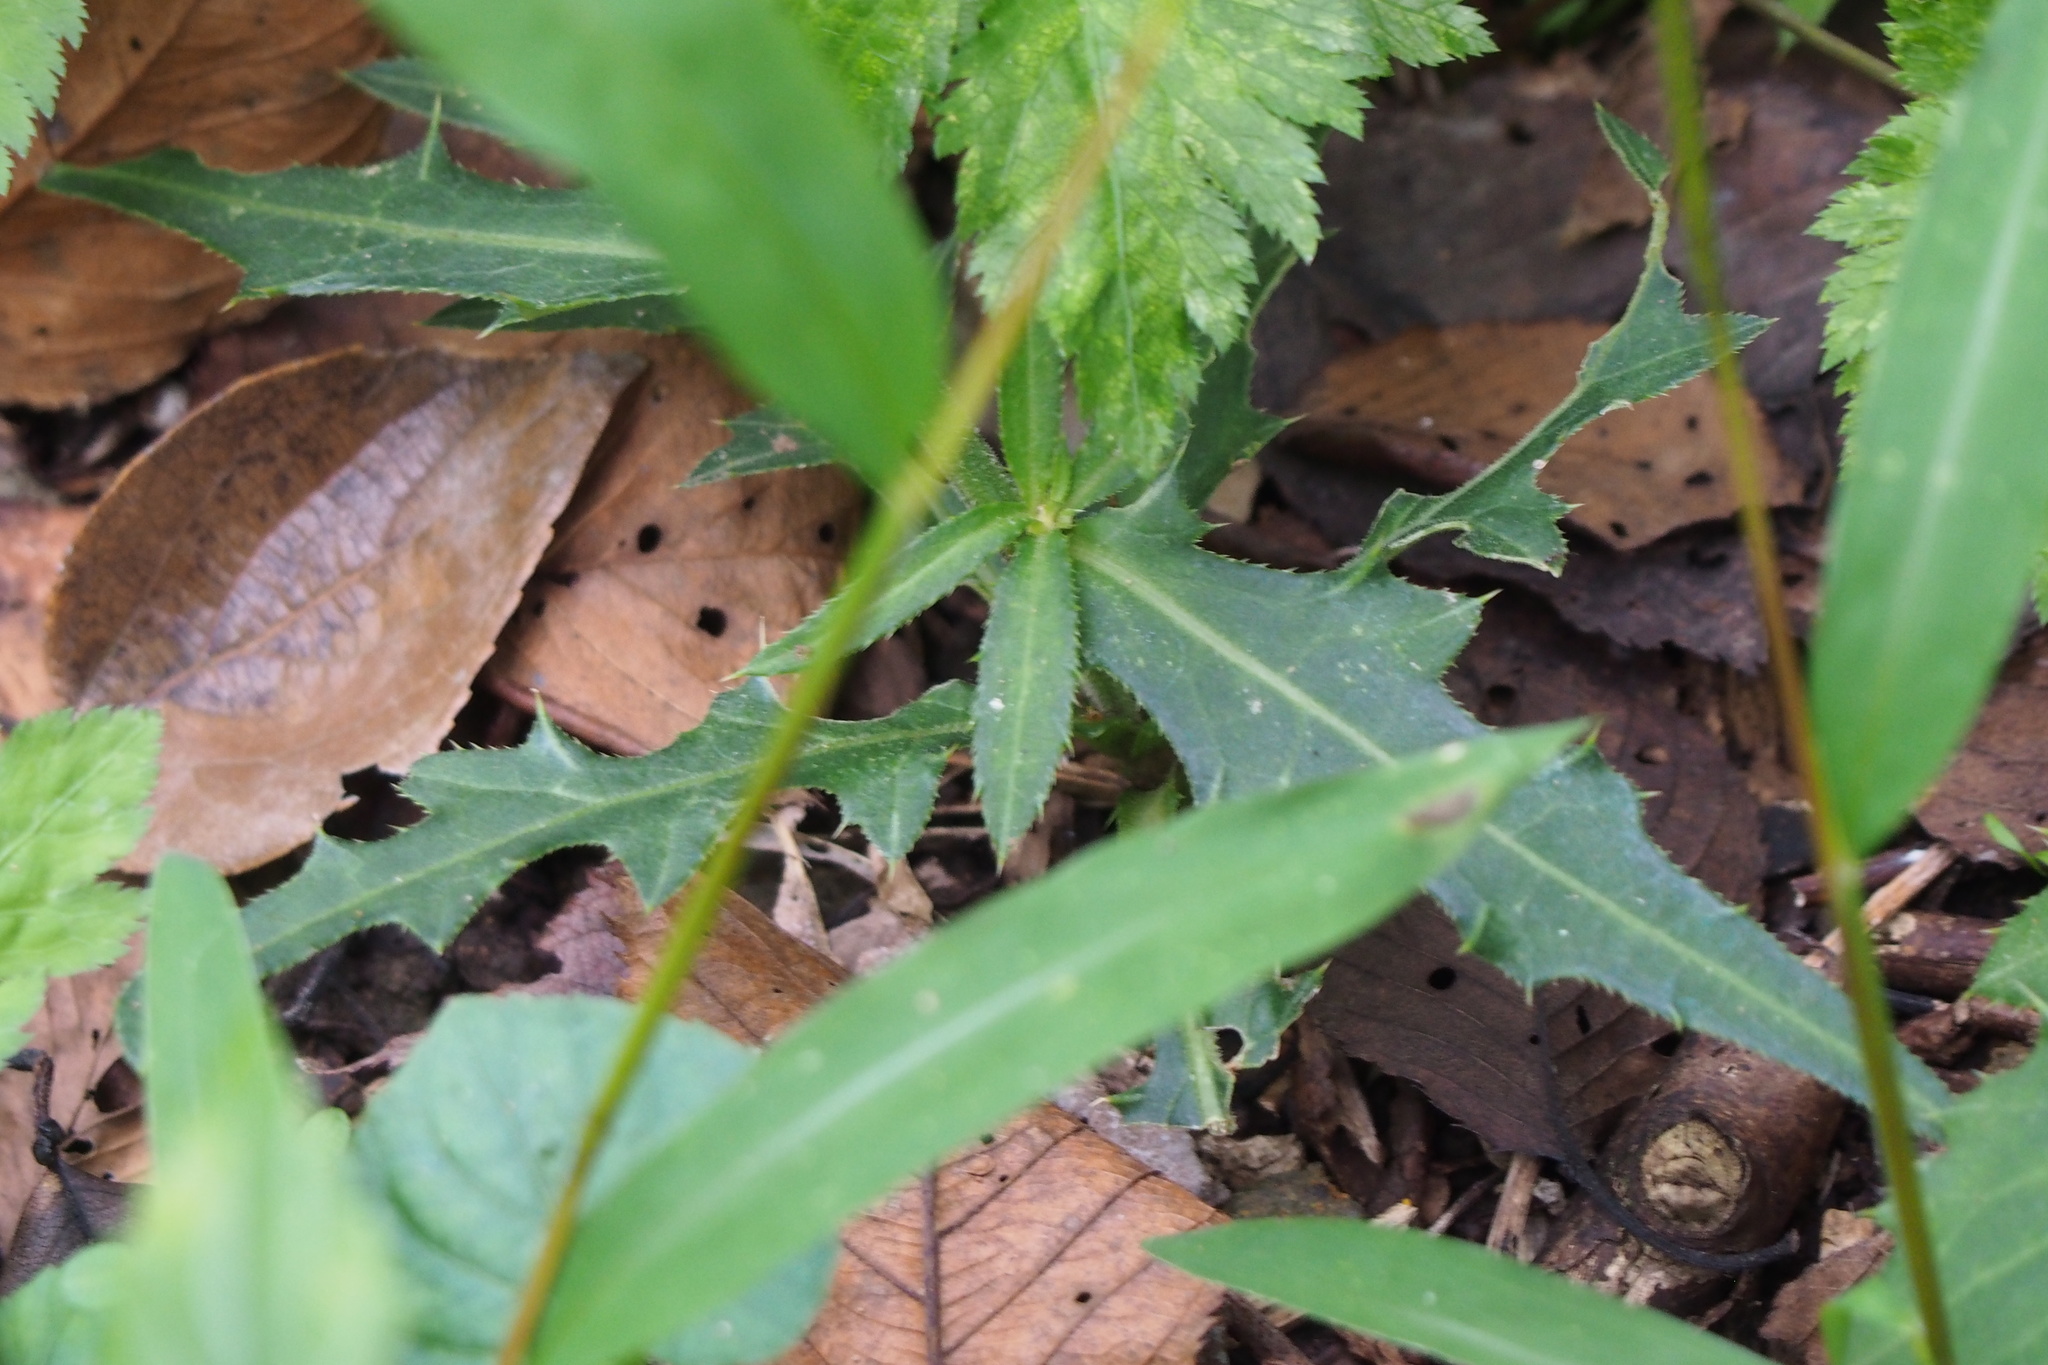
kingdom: Plantae
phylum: Tracheophyta
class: Magnoliopsida
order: Asterales
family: Asteraceae
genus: Cirsium
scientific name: Cirsium oligophyllum
